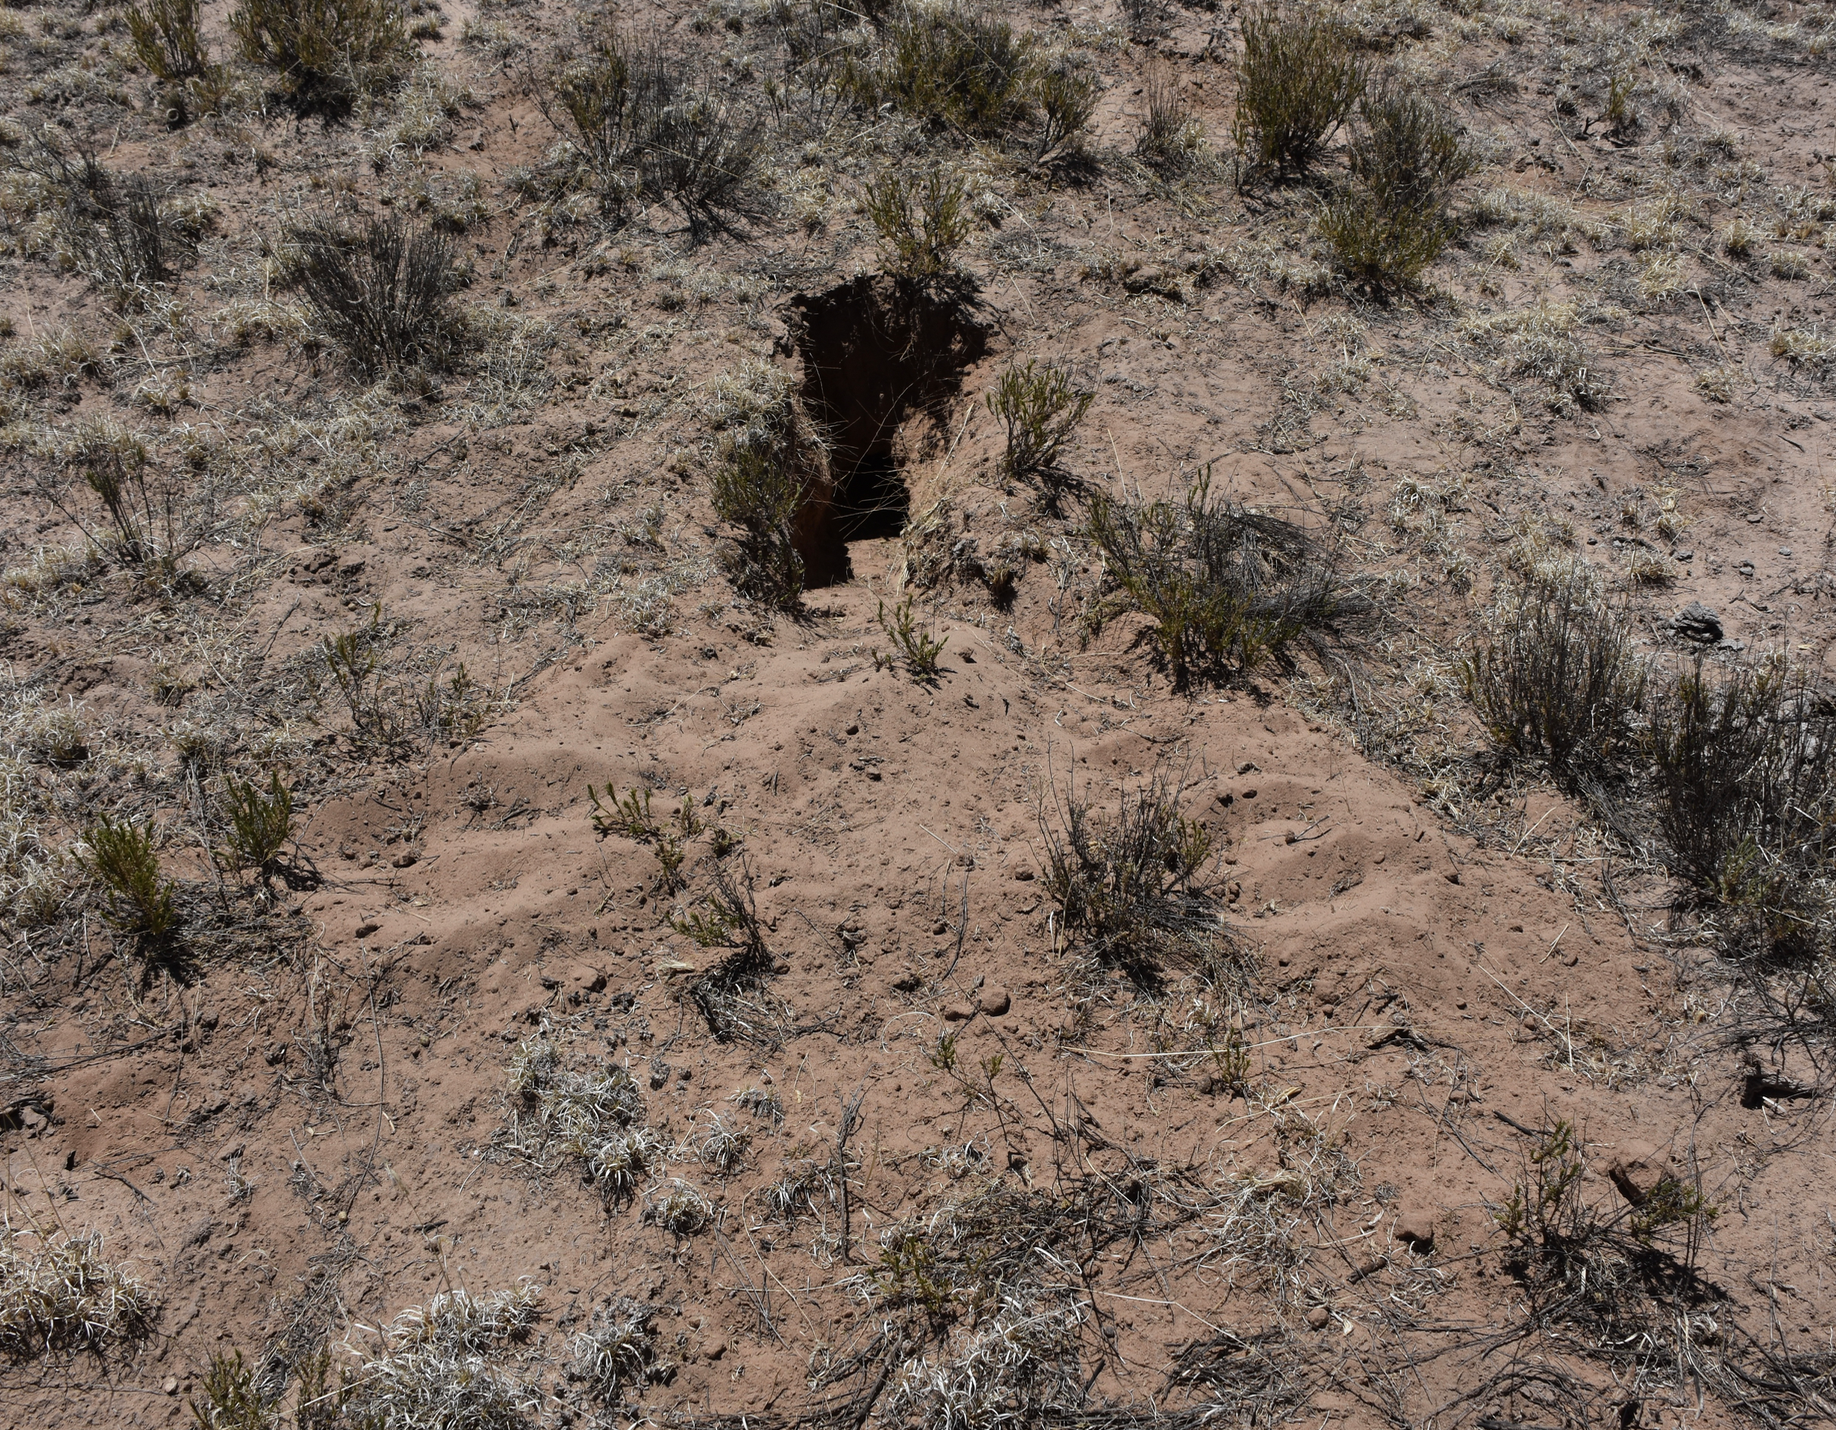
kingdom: Animalia
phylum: Chordata
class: Mammalia
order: Rodentia
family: Sciuridae
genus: Cynomys
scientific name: Cynomys gunnisoni
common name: Gunnison's prairie dog
